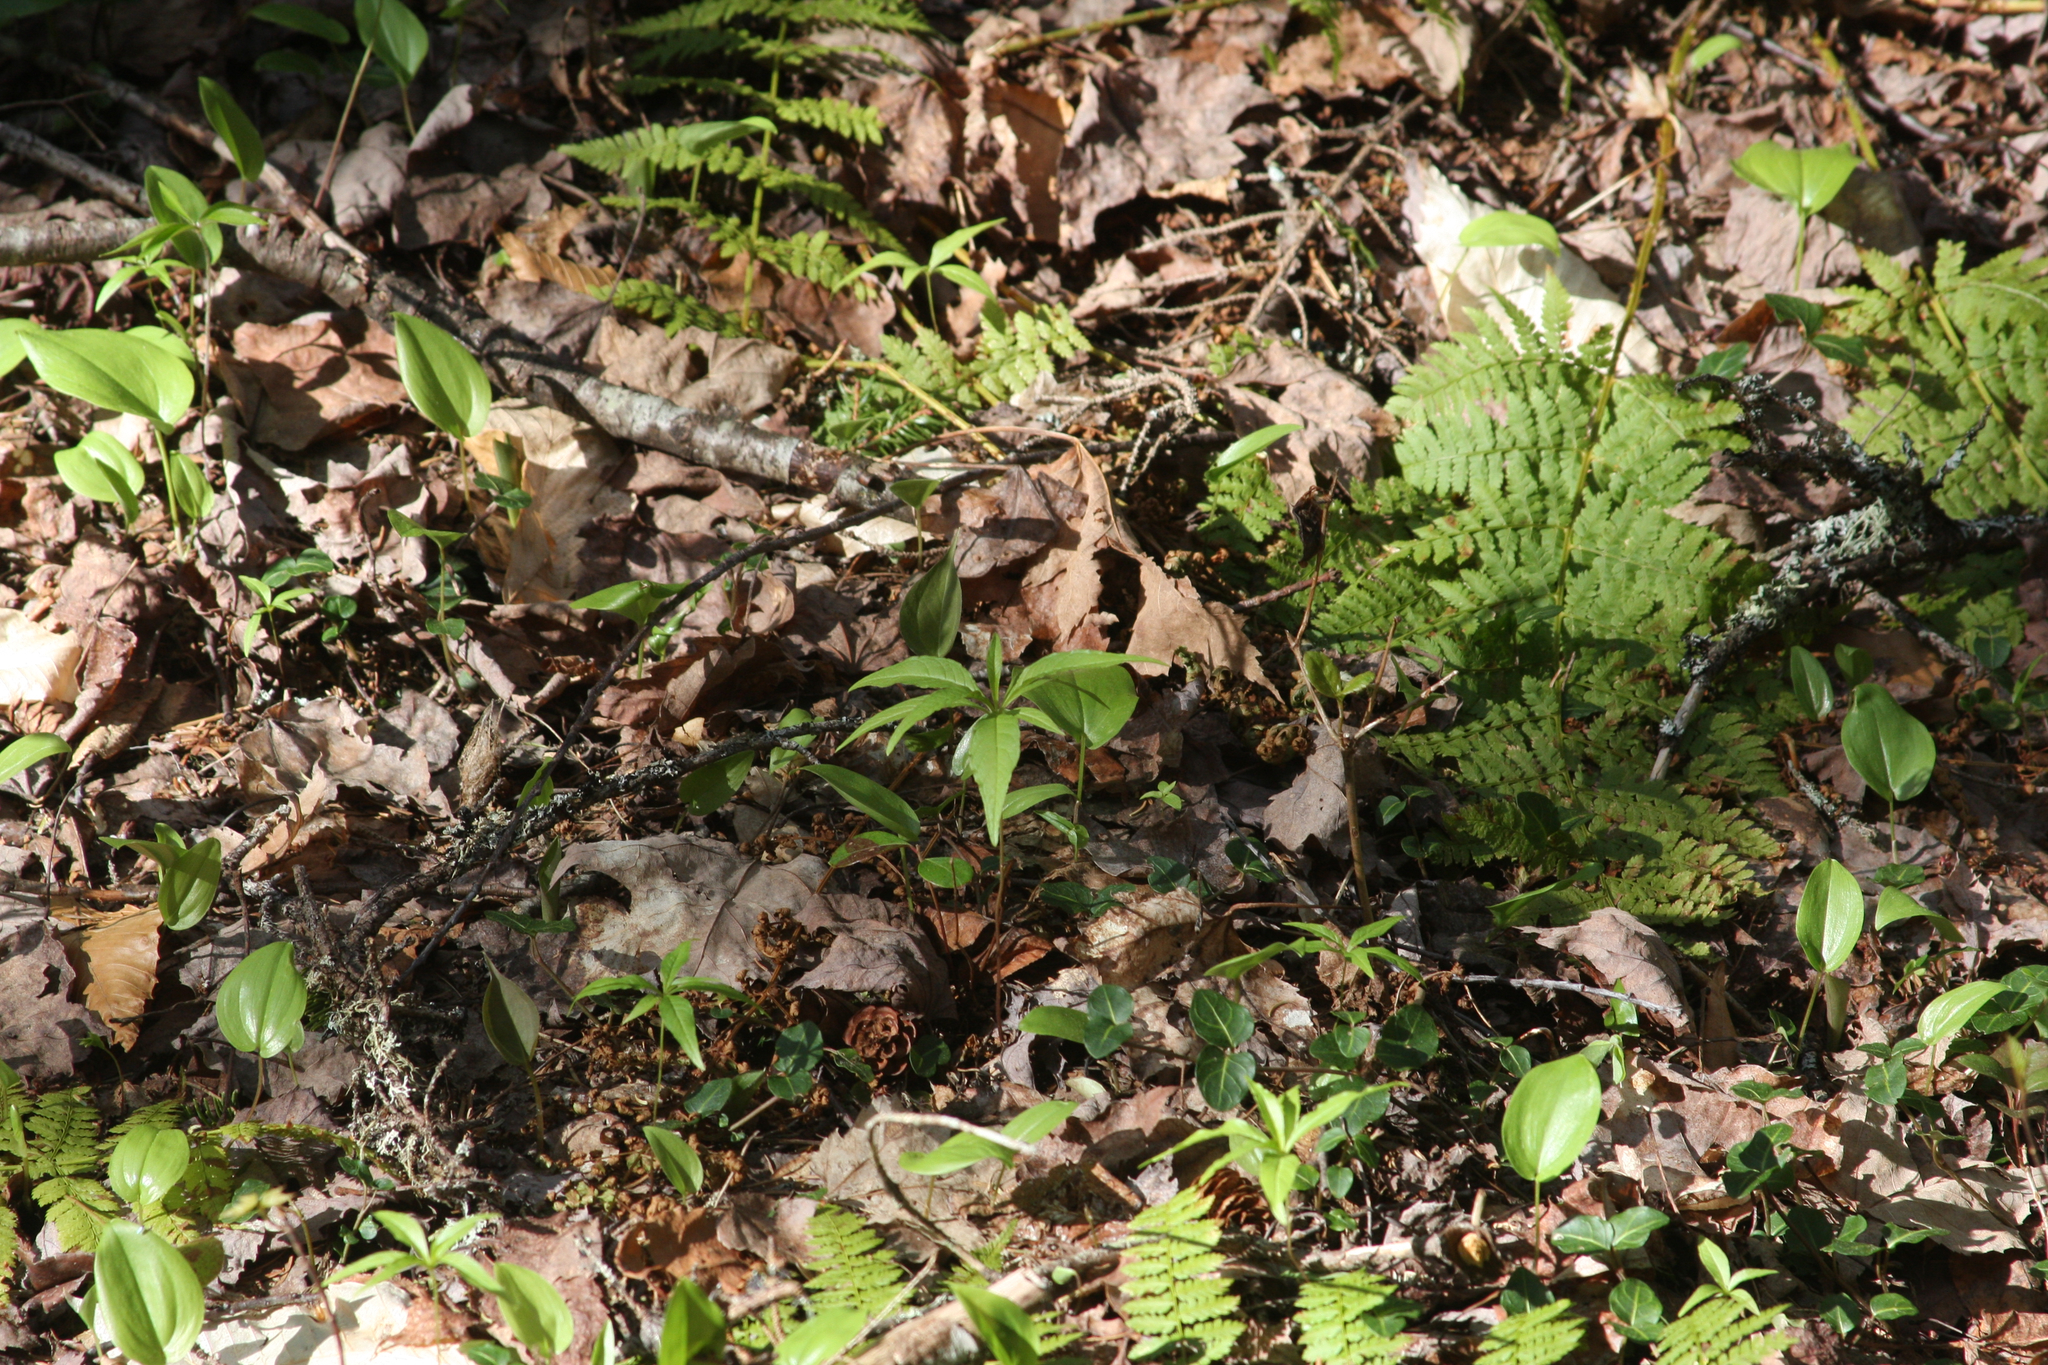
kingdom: Plantae
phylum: Tracheophyta
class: Liliopsida
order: Asparagales
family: Asparagaceae
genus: Maianthemum
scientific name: Maianthemum canadense
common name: False lily-of-the-valley
